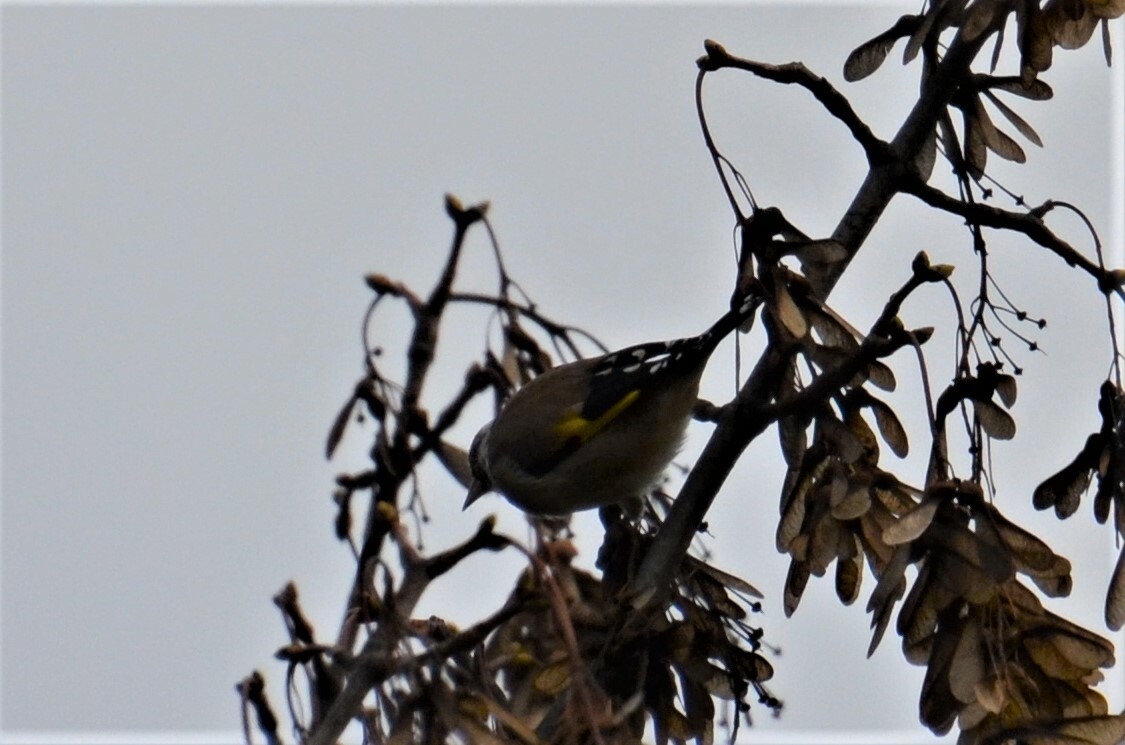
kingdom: Animalia
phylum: Chordata
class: Aves
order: Passeriformes
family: Fringillidae
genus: Carduelis
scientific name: Carduelis carduelis
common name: European goldfinch
